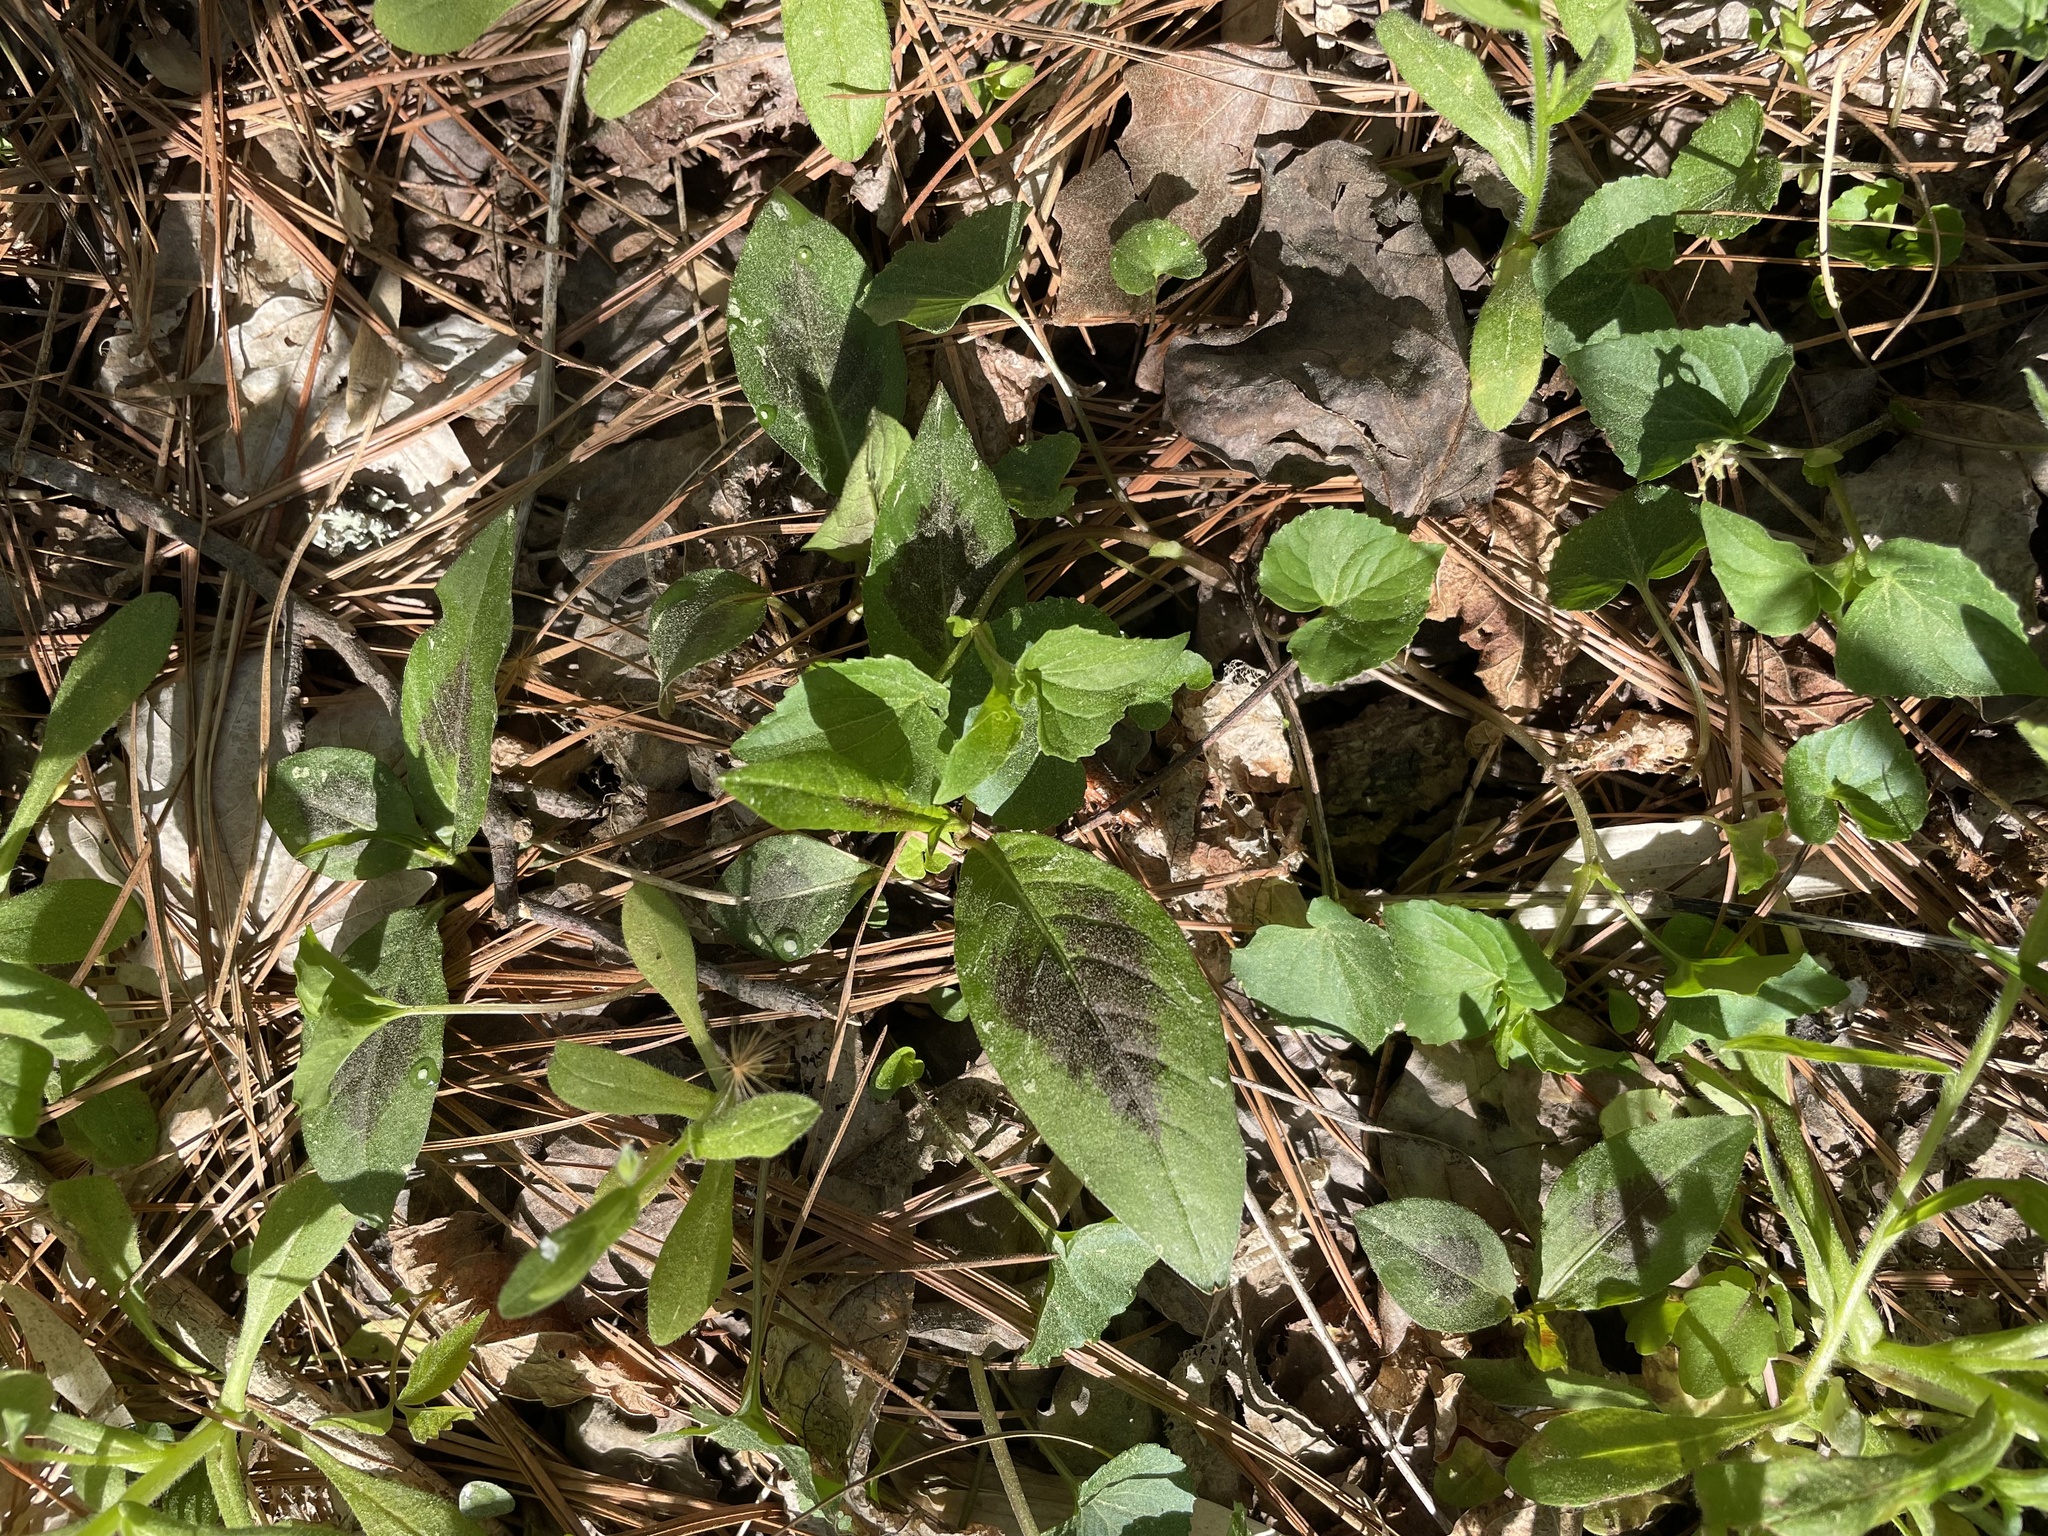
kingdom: Plantae
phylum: Tracheophyta
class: Magnoliopsida
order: Caryophyllales
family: Polygonaceae
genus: Persicaria
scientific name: Persicaria virginiana
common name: Jumpseed
